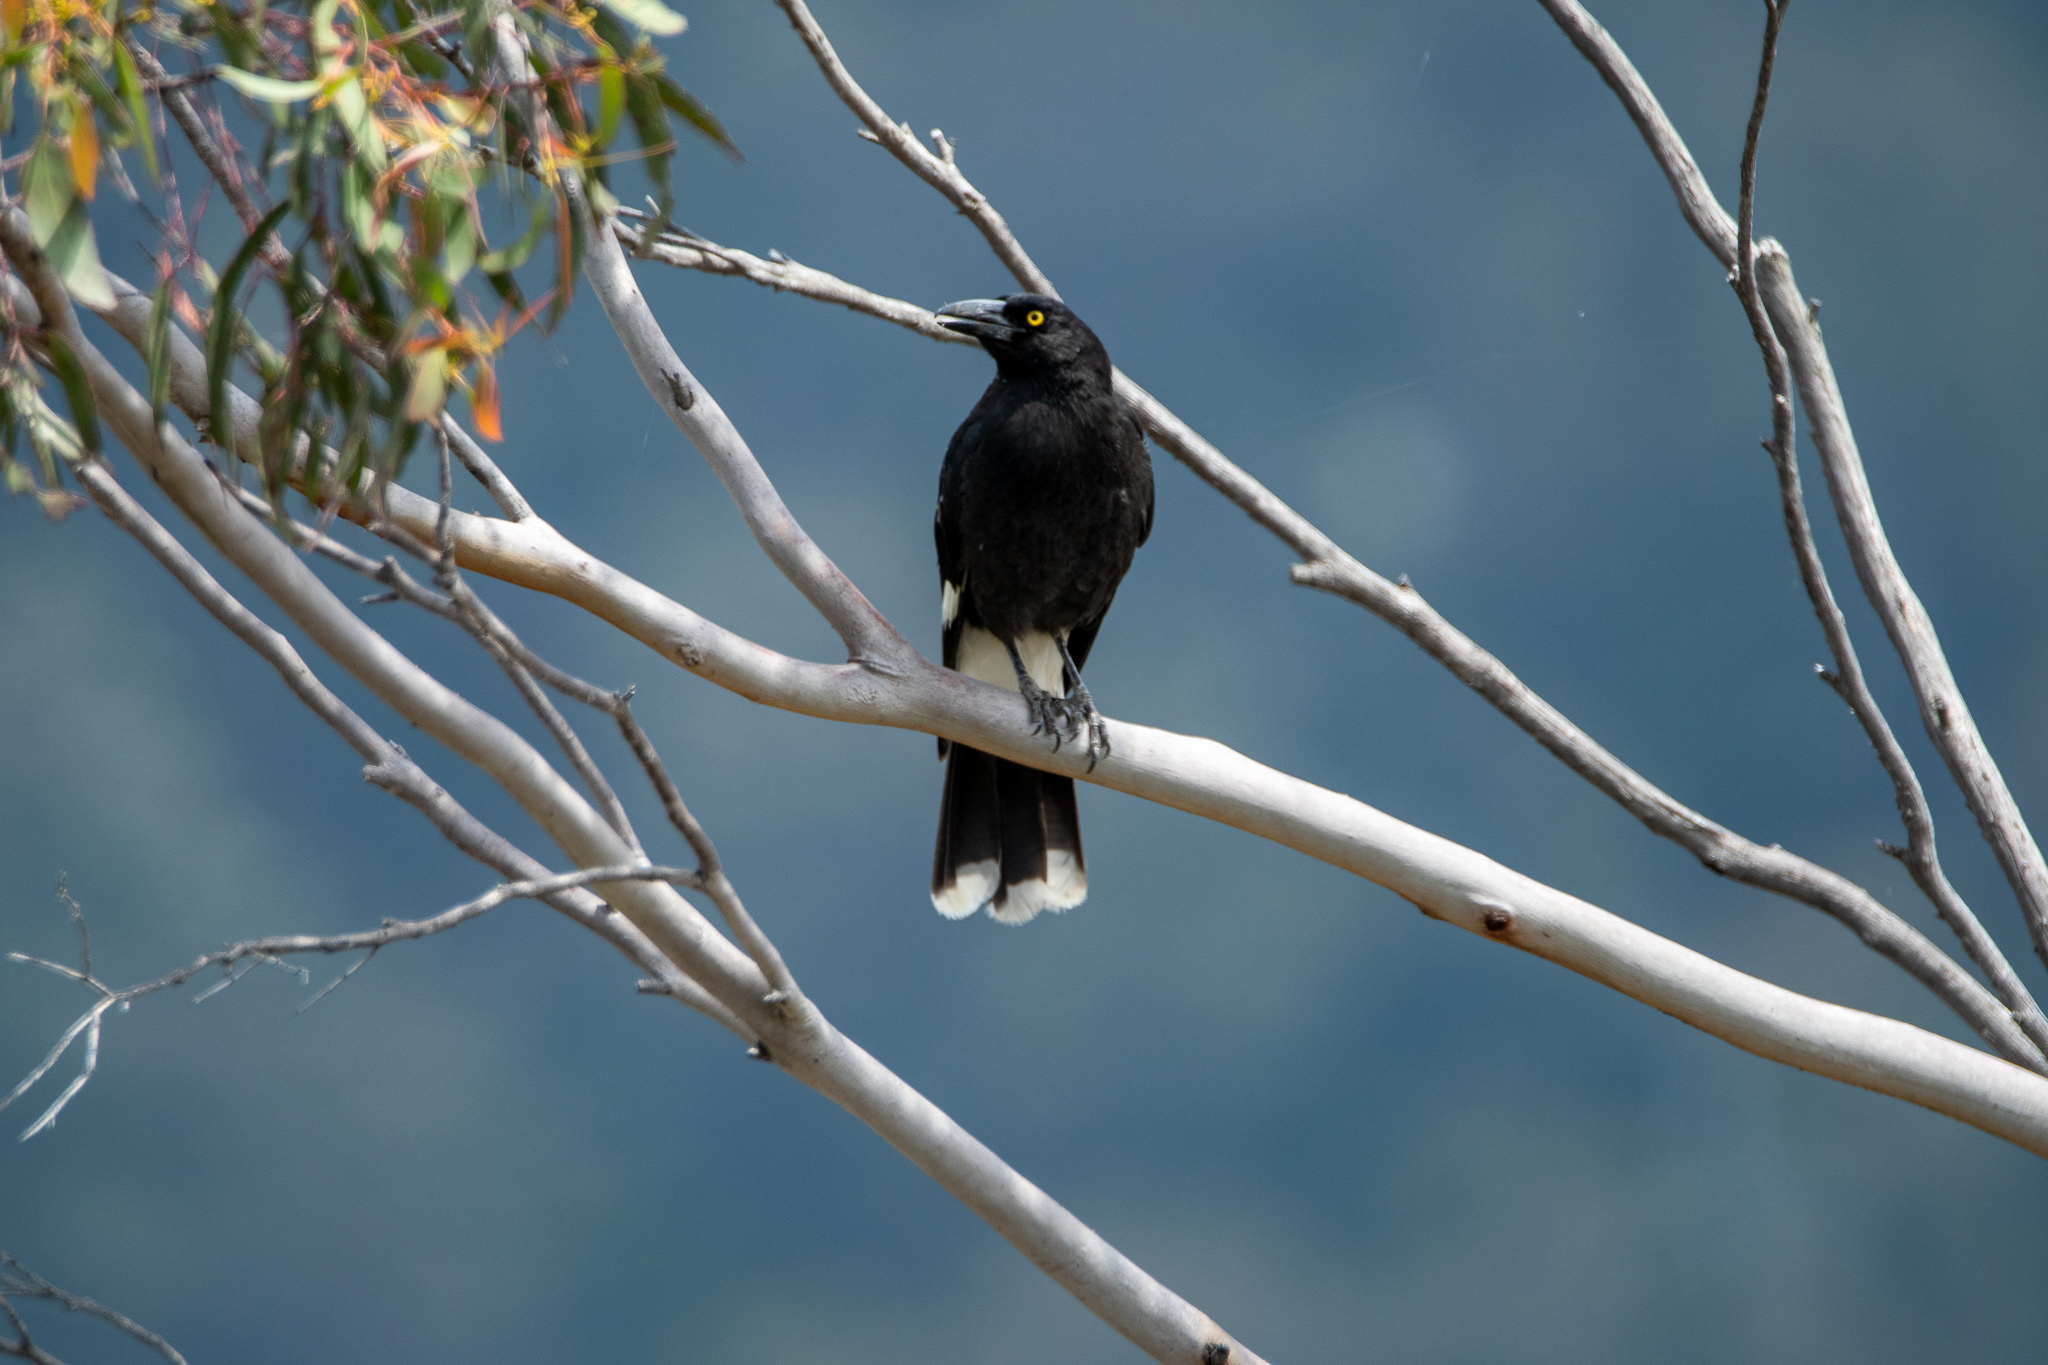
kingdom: Animalia
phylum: Chordata
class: Aves
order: Passeriformes
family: Cracticidae
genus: Strepera
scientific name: Strepera graculina
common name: Pied currawong
